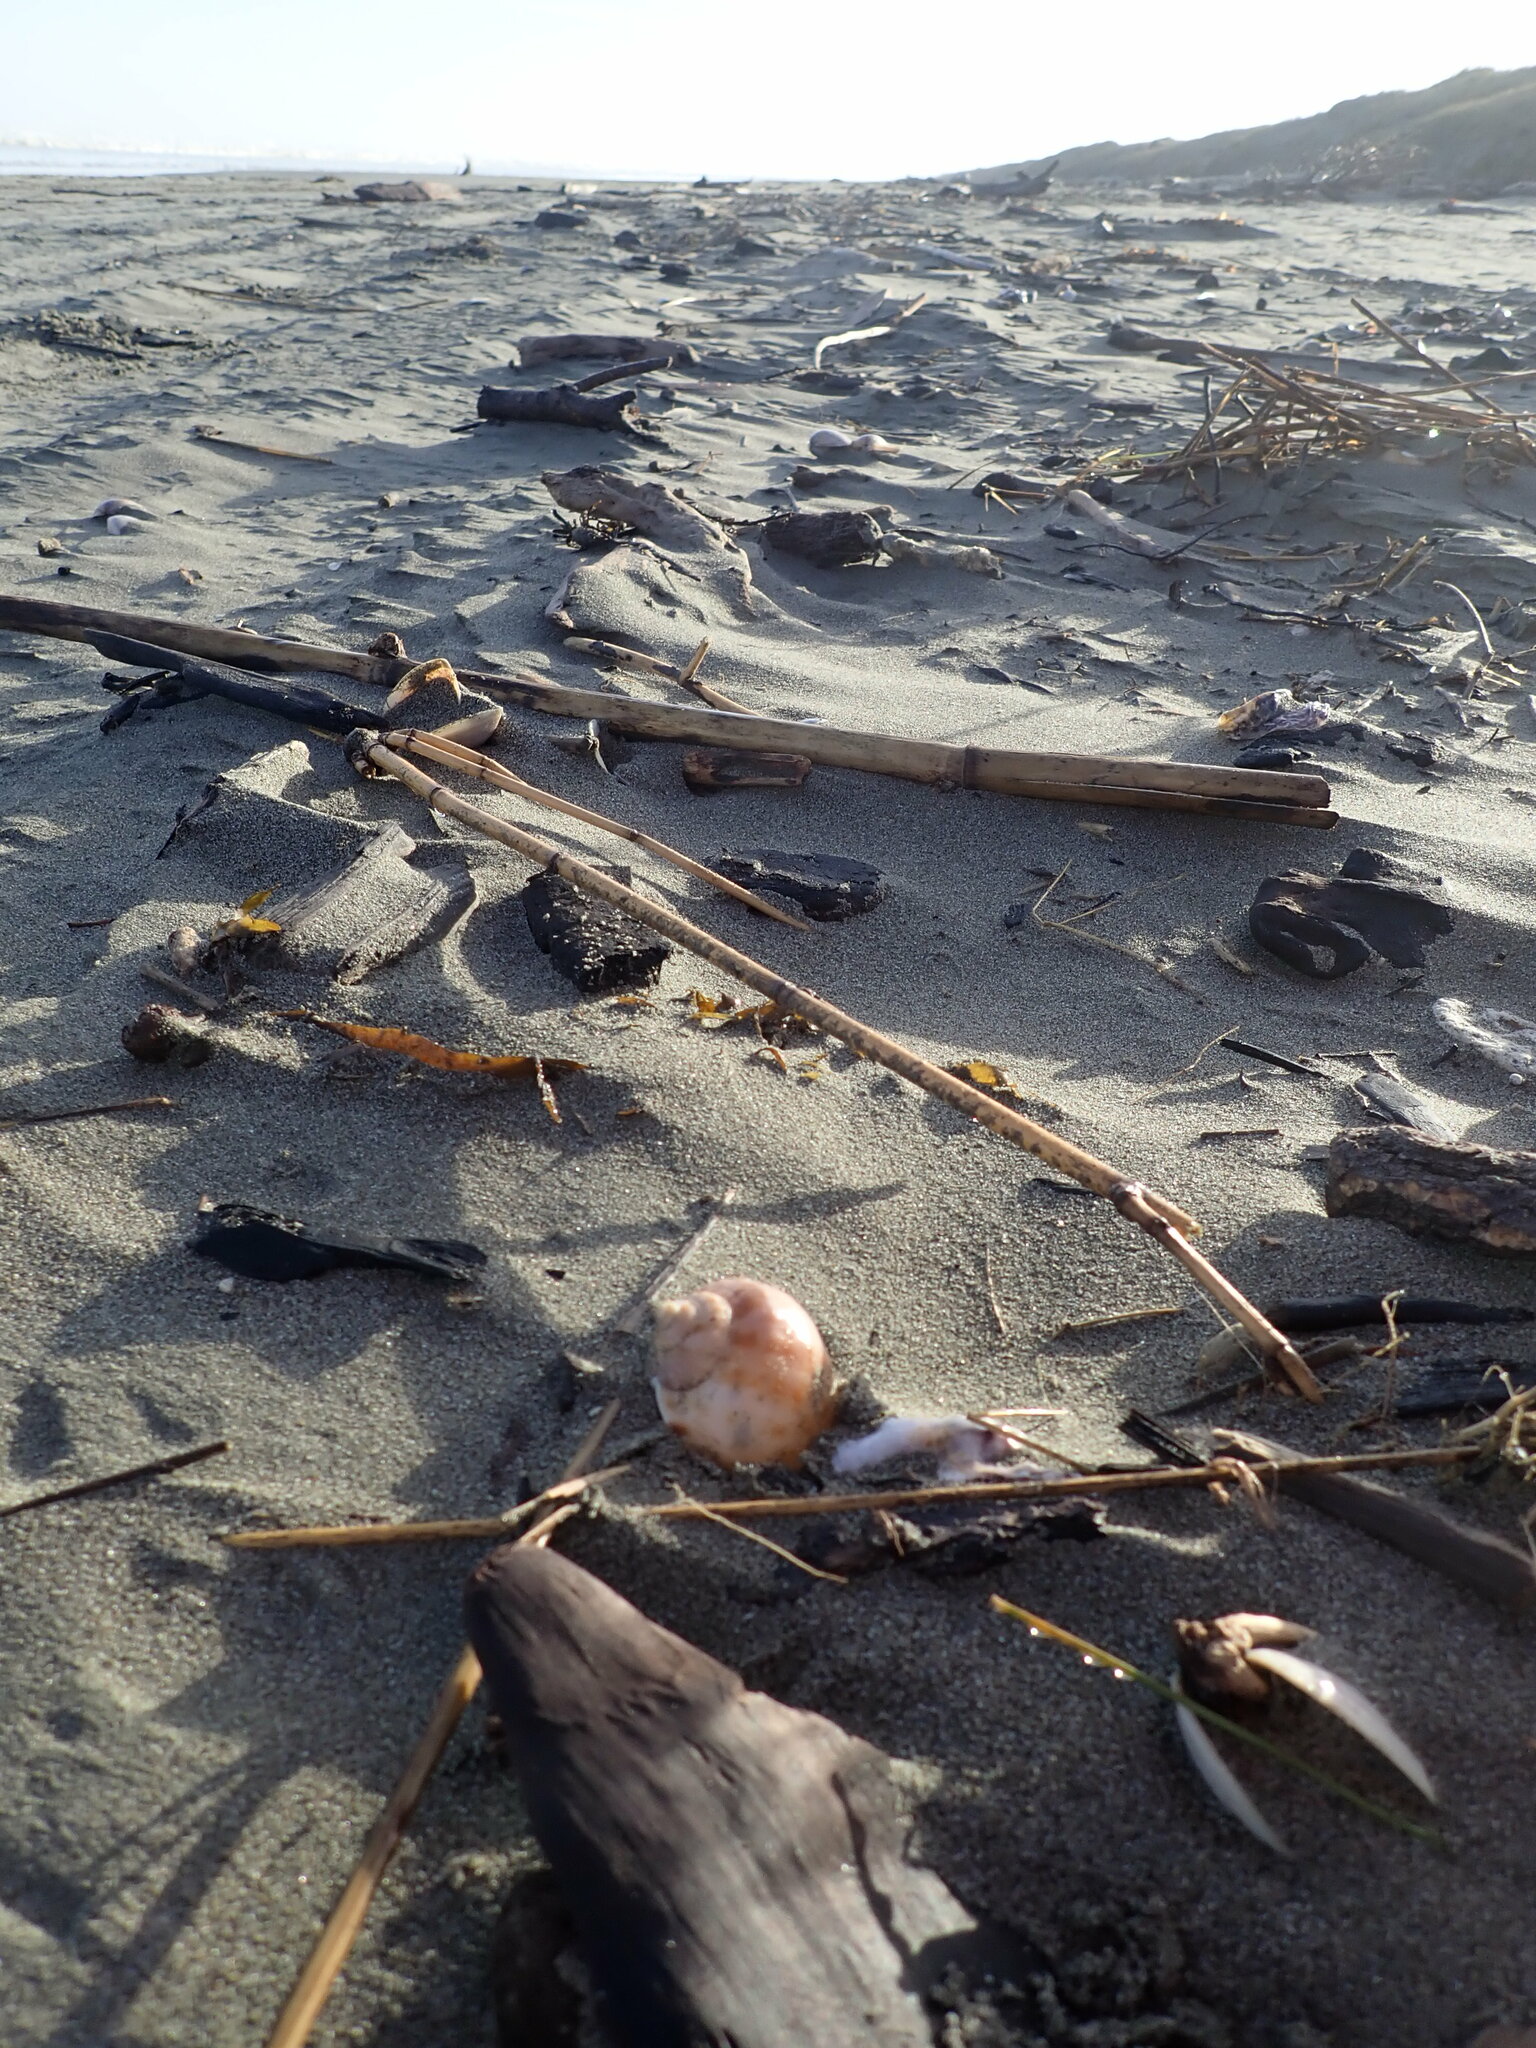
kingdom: Animalia
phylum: Mollusca
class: Gastropoda
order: Littorinimorpha
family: Cassidae
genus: Semicassis
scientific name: Semicassis pyrum
